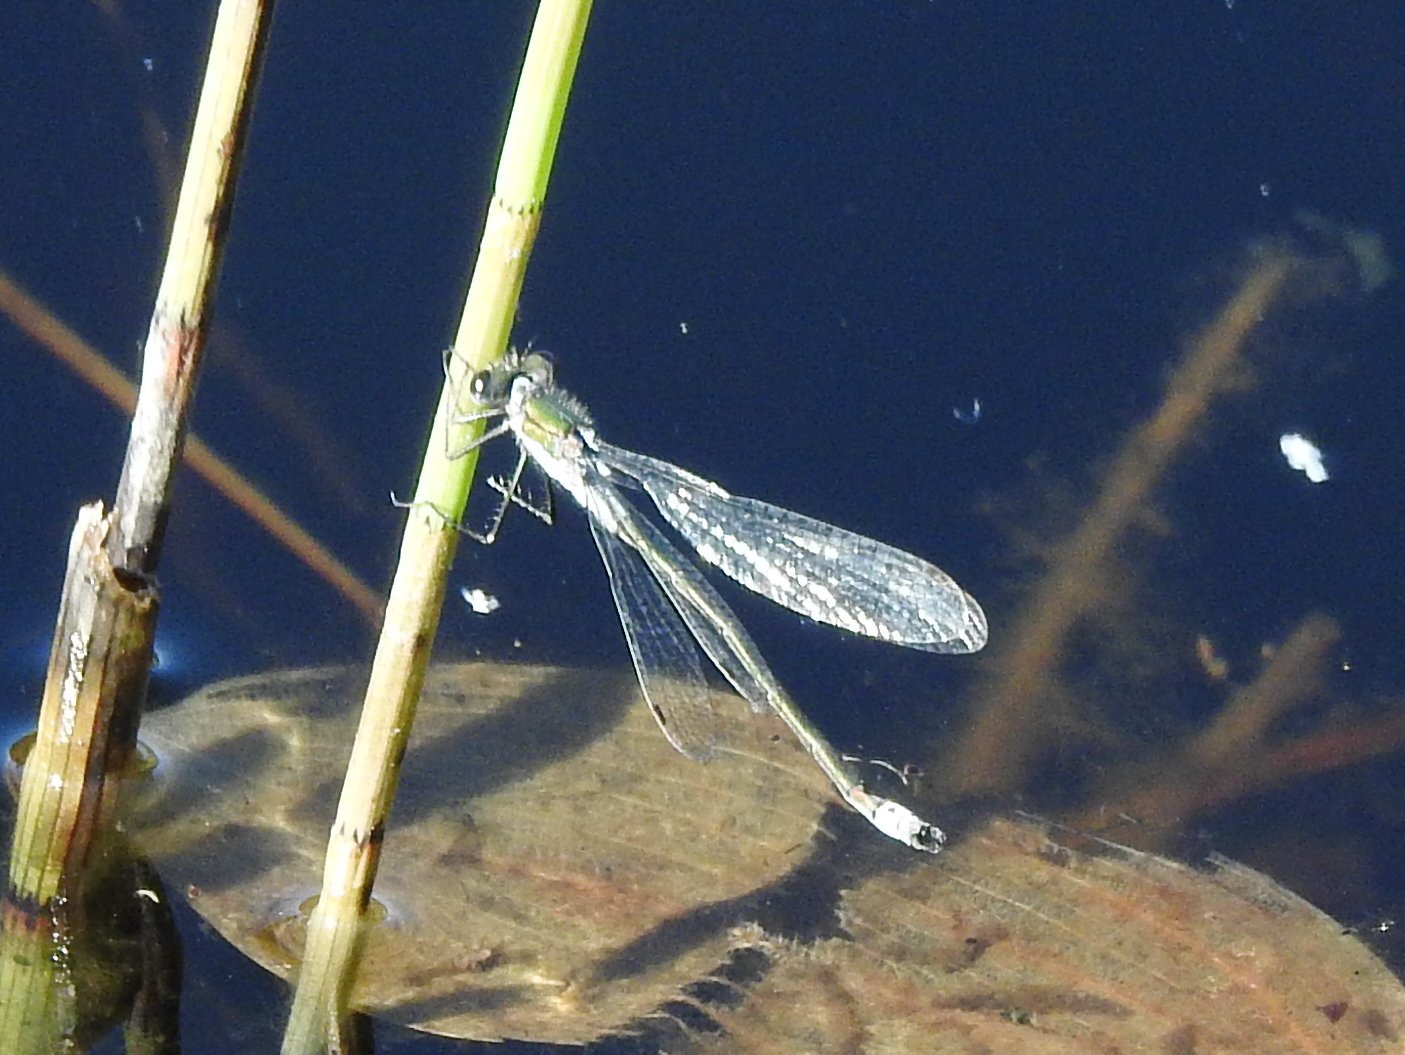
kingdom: Animalia
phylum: Arthropoda
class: Insecta
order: Odonata
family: Lestidae
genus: Lestes
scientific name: Lestes sponsa
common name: Common spreadwing
